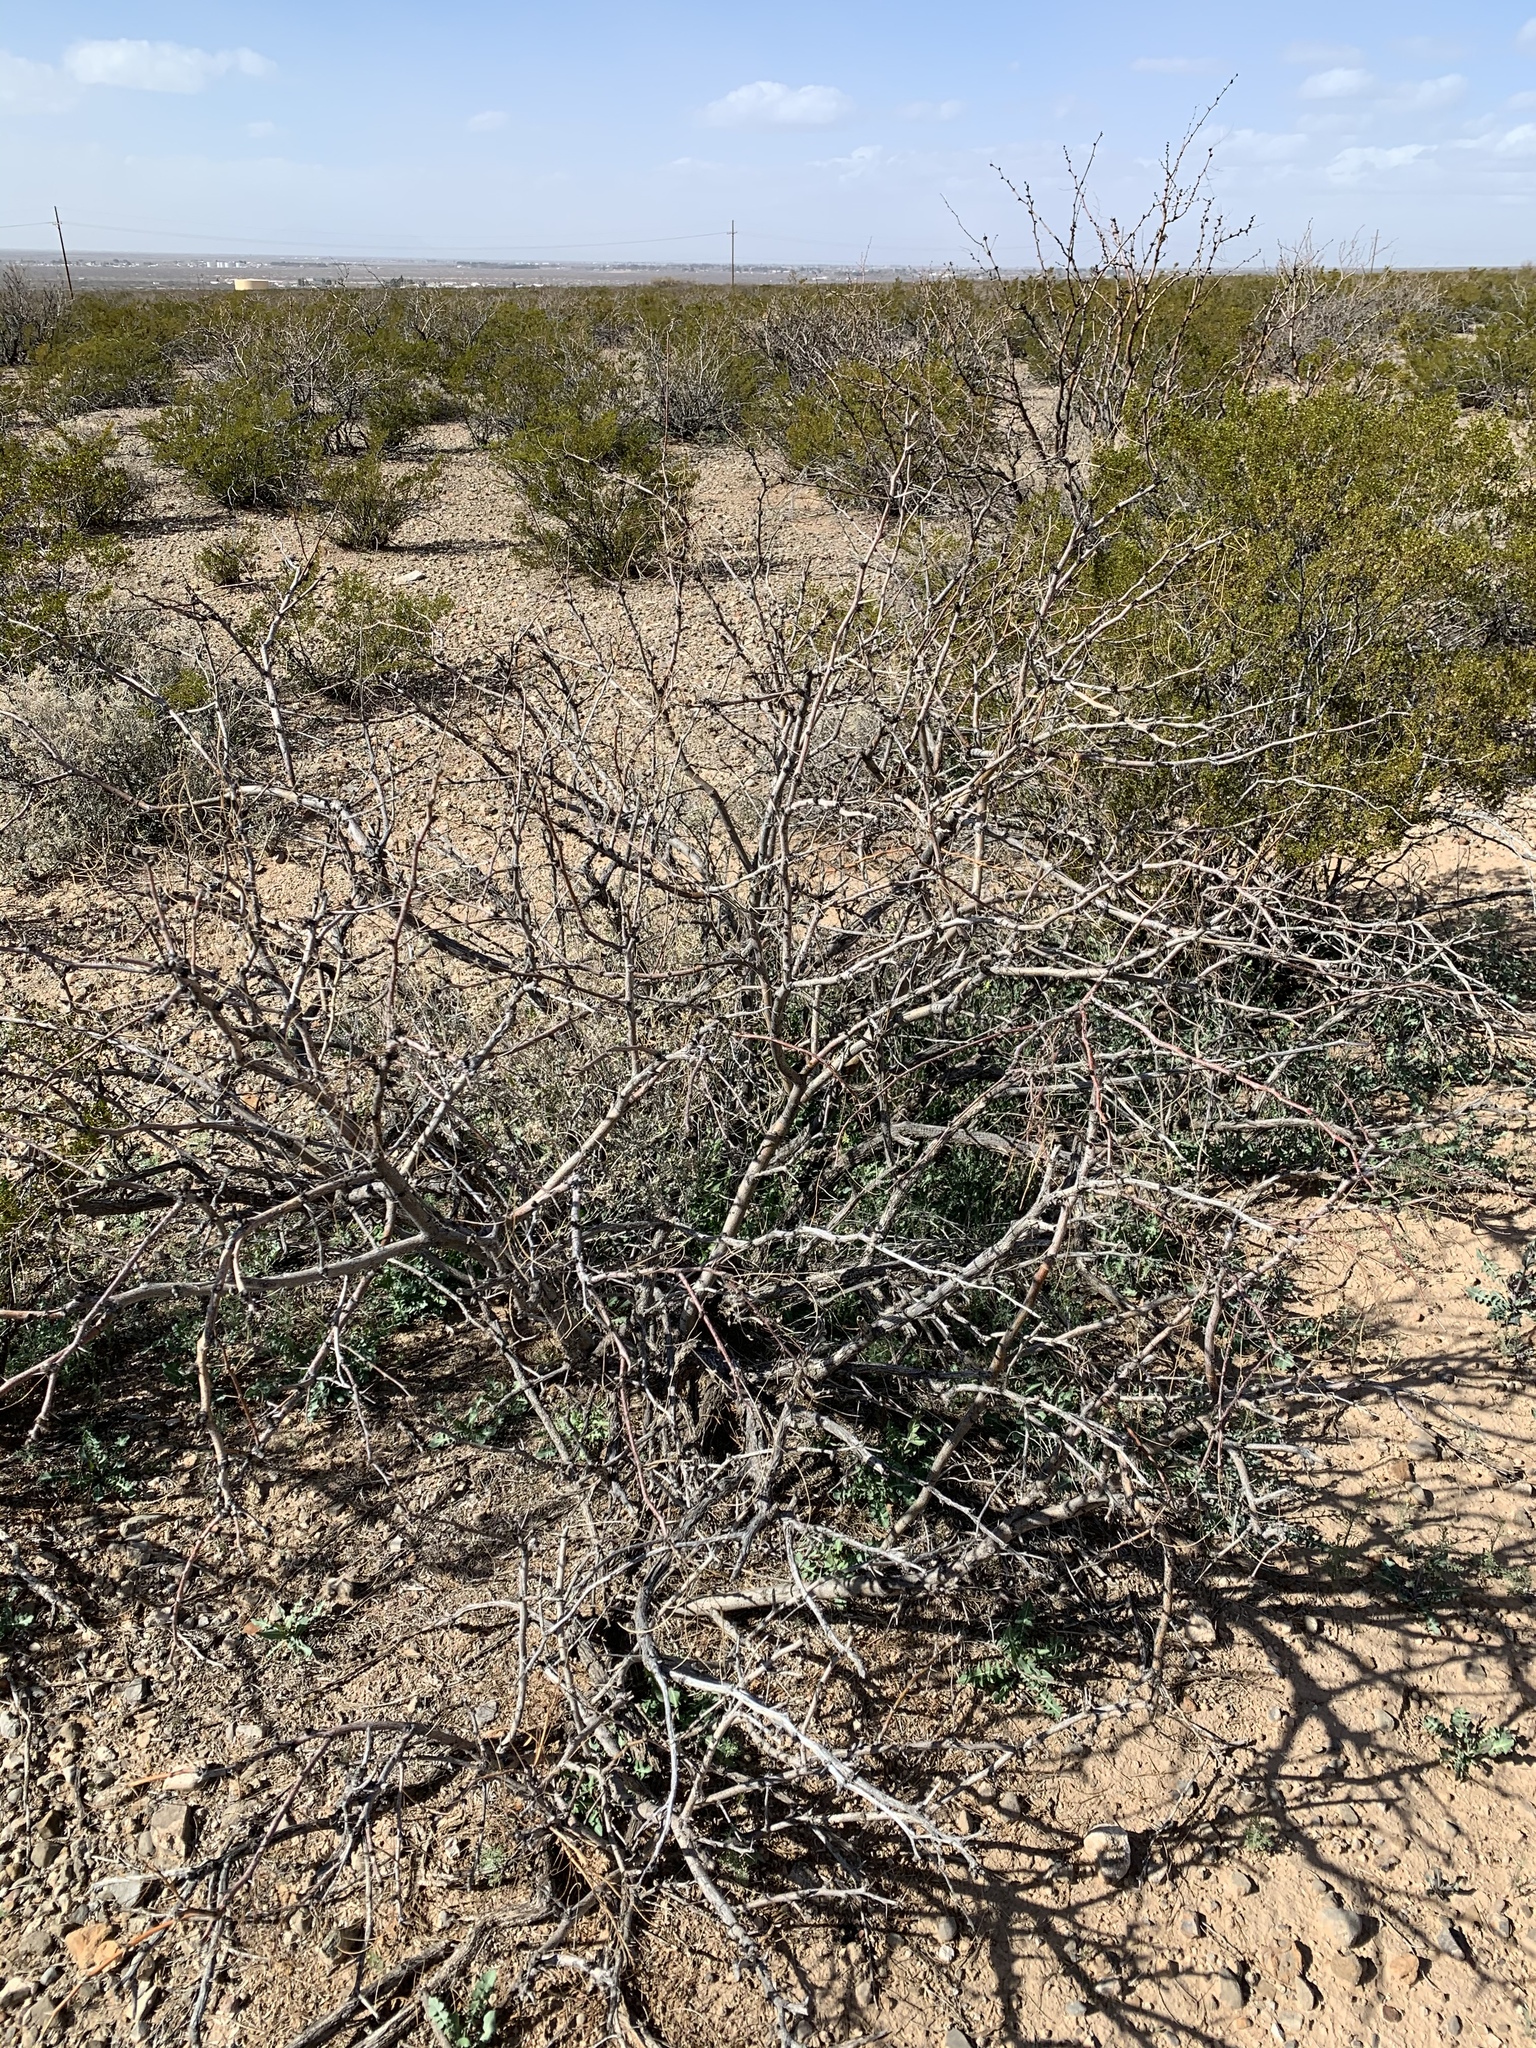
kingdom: Plantae
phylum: Tracheophyta
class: Magnoliopsida
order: Fabales
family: Fabaceae
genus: Prosopis
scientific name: Prosopis glandulosa
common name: Honey mesquite
